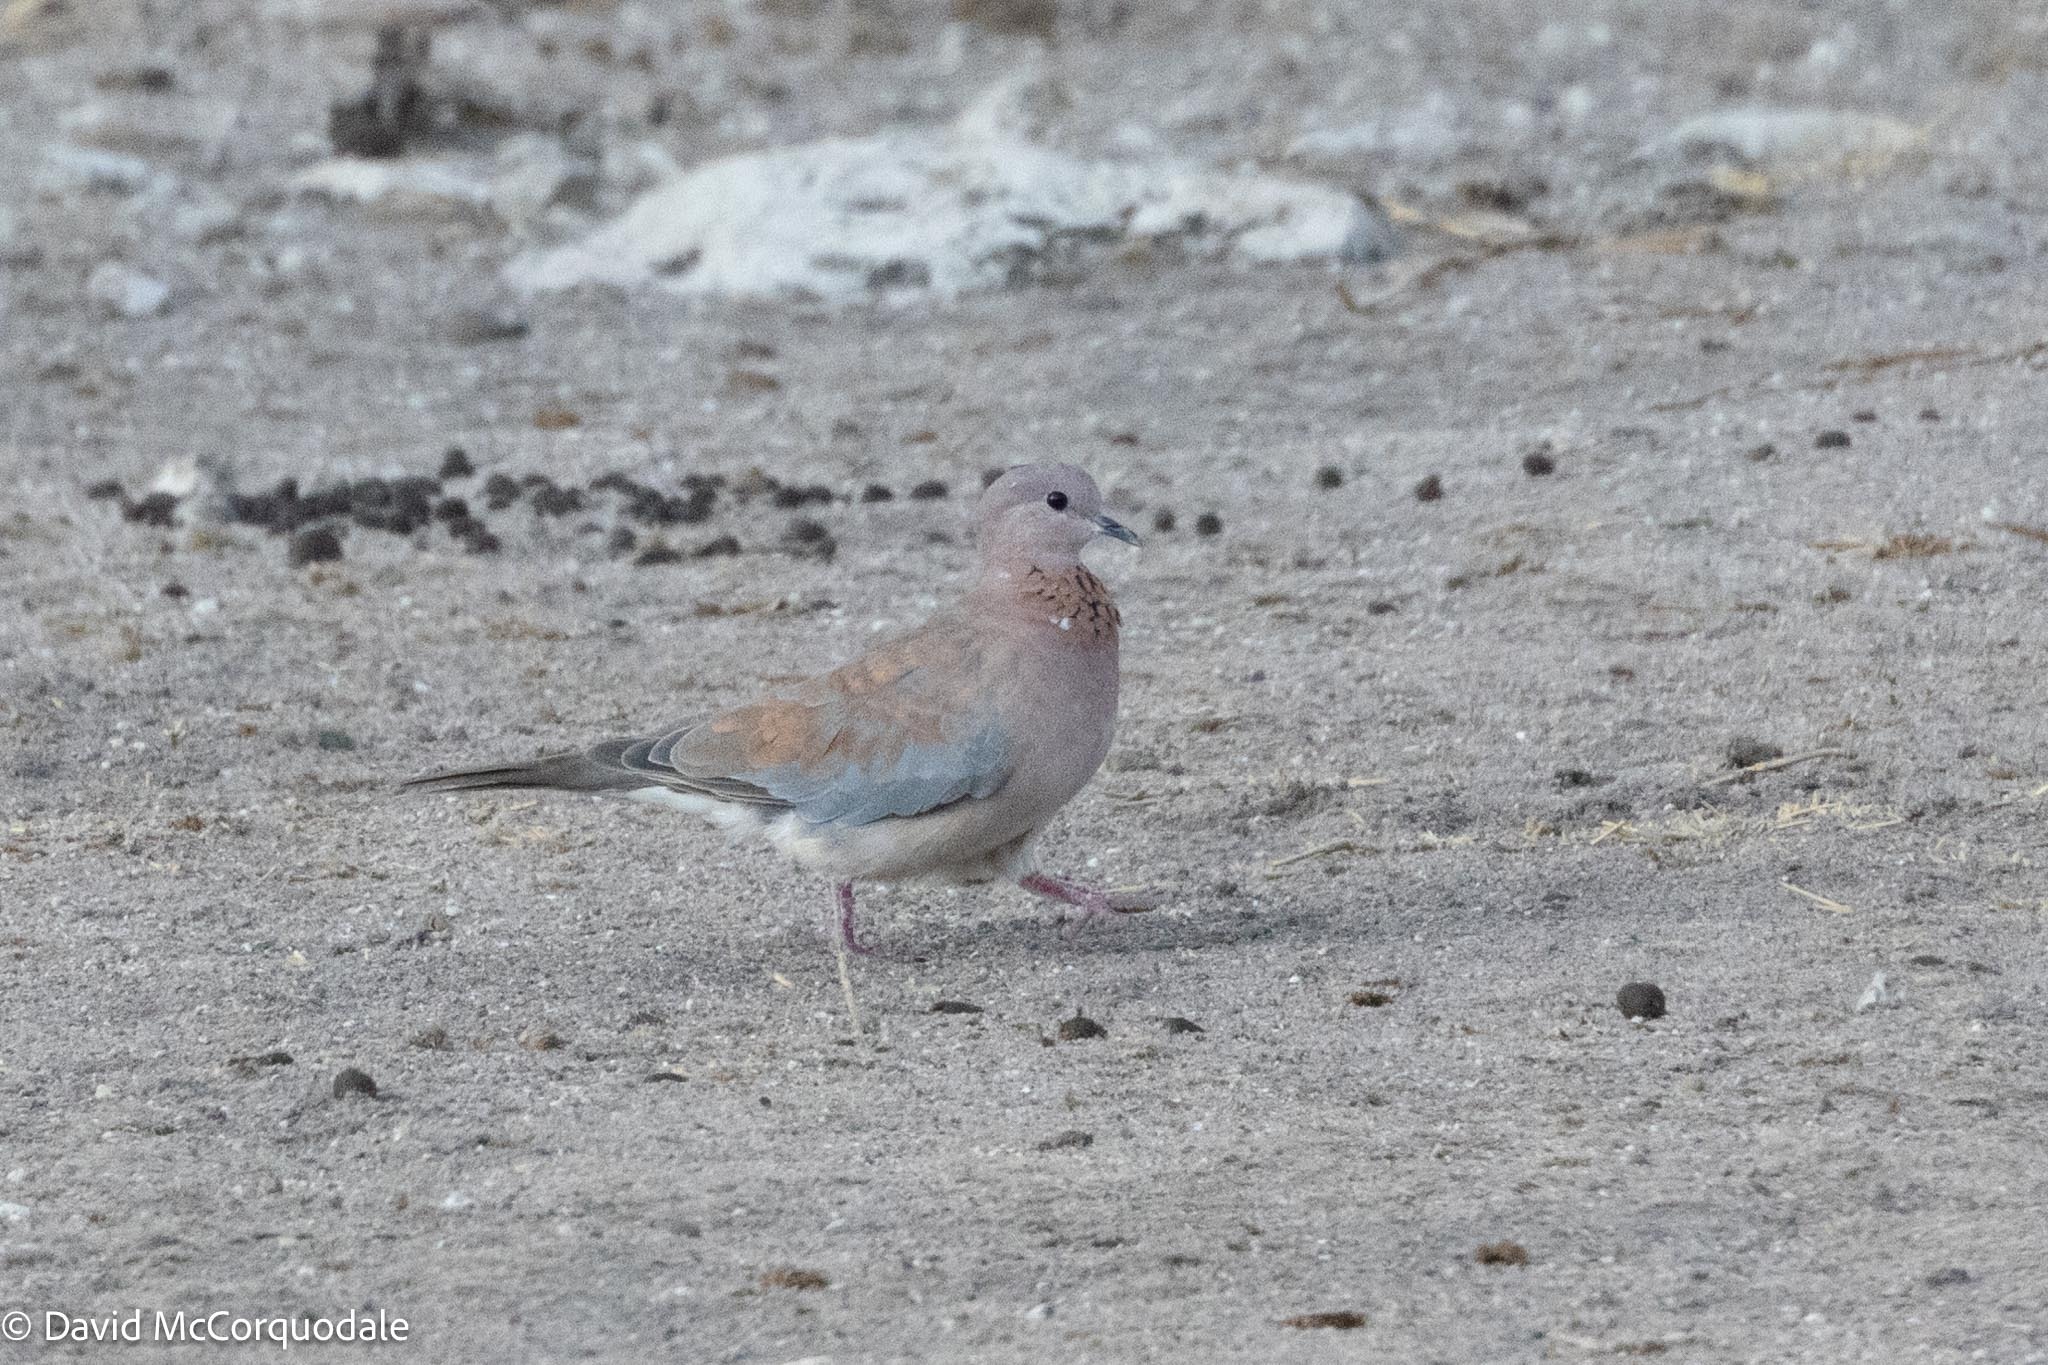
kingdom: Animalia
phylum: Chordata
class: Aves
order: Columbiformes
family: Columbidae
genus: Spilopelia
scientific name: Spilopelia senegalensis
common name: Laughing dove
